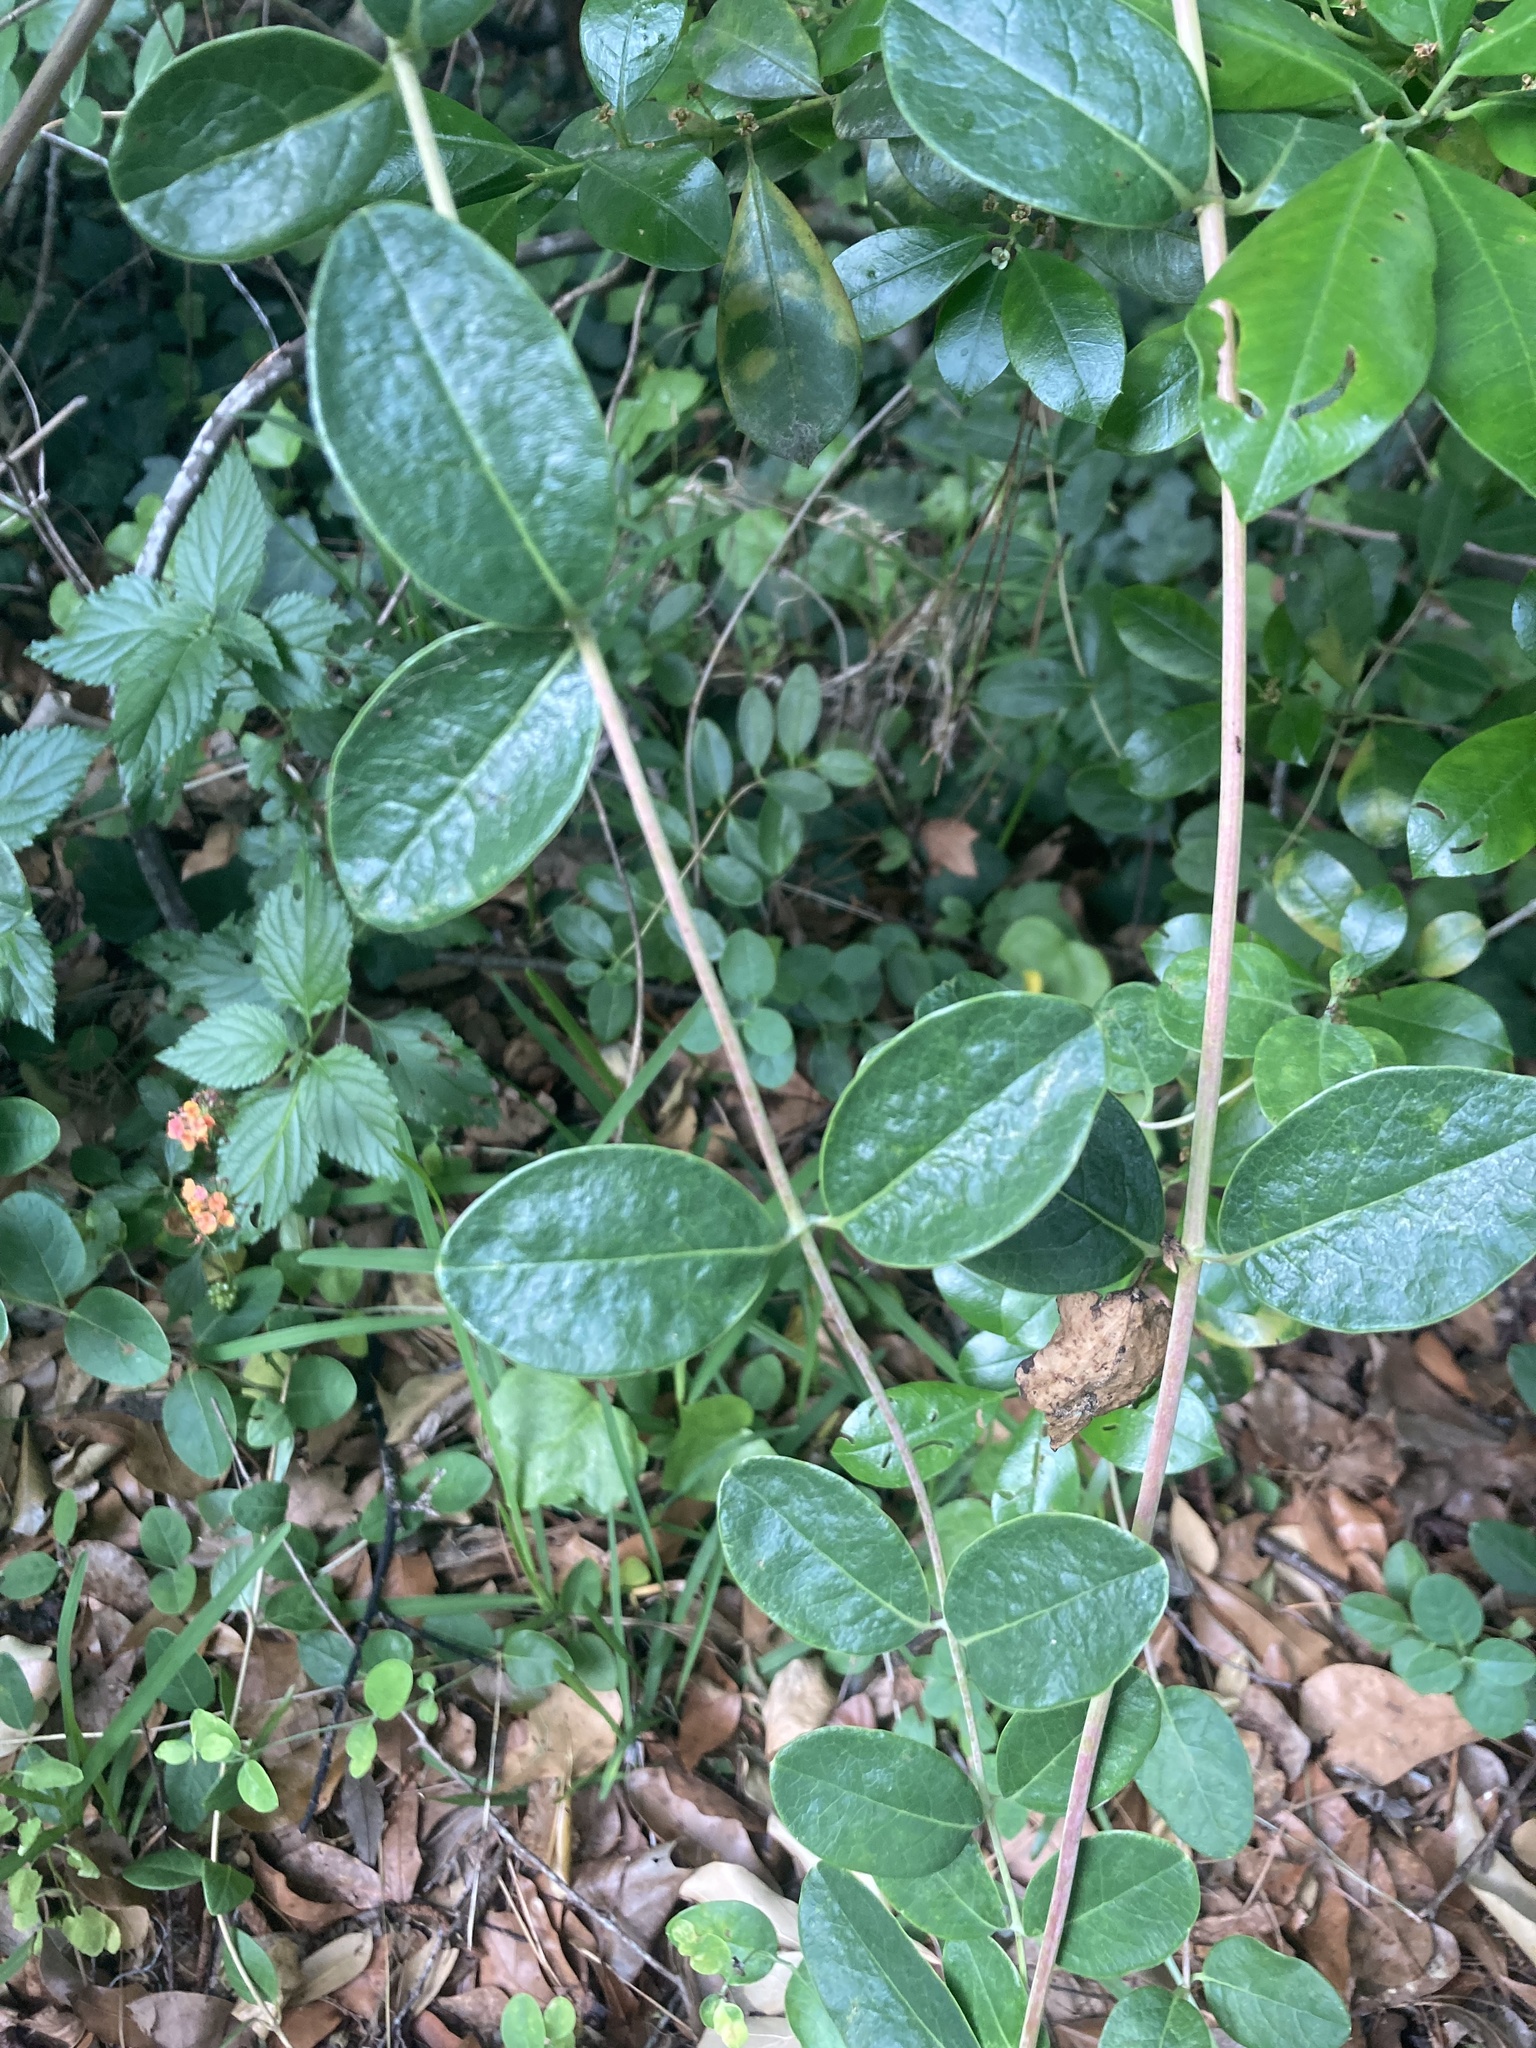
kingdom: Plantae
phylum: Tracheophyta
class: Magnoliopsida
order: Dipsacales
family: Caprifoliaceae
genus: Lonicera
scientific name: Lonicera sempervirens
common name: Coral honeysuckle
